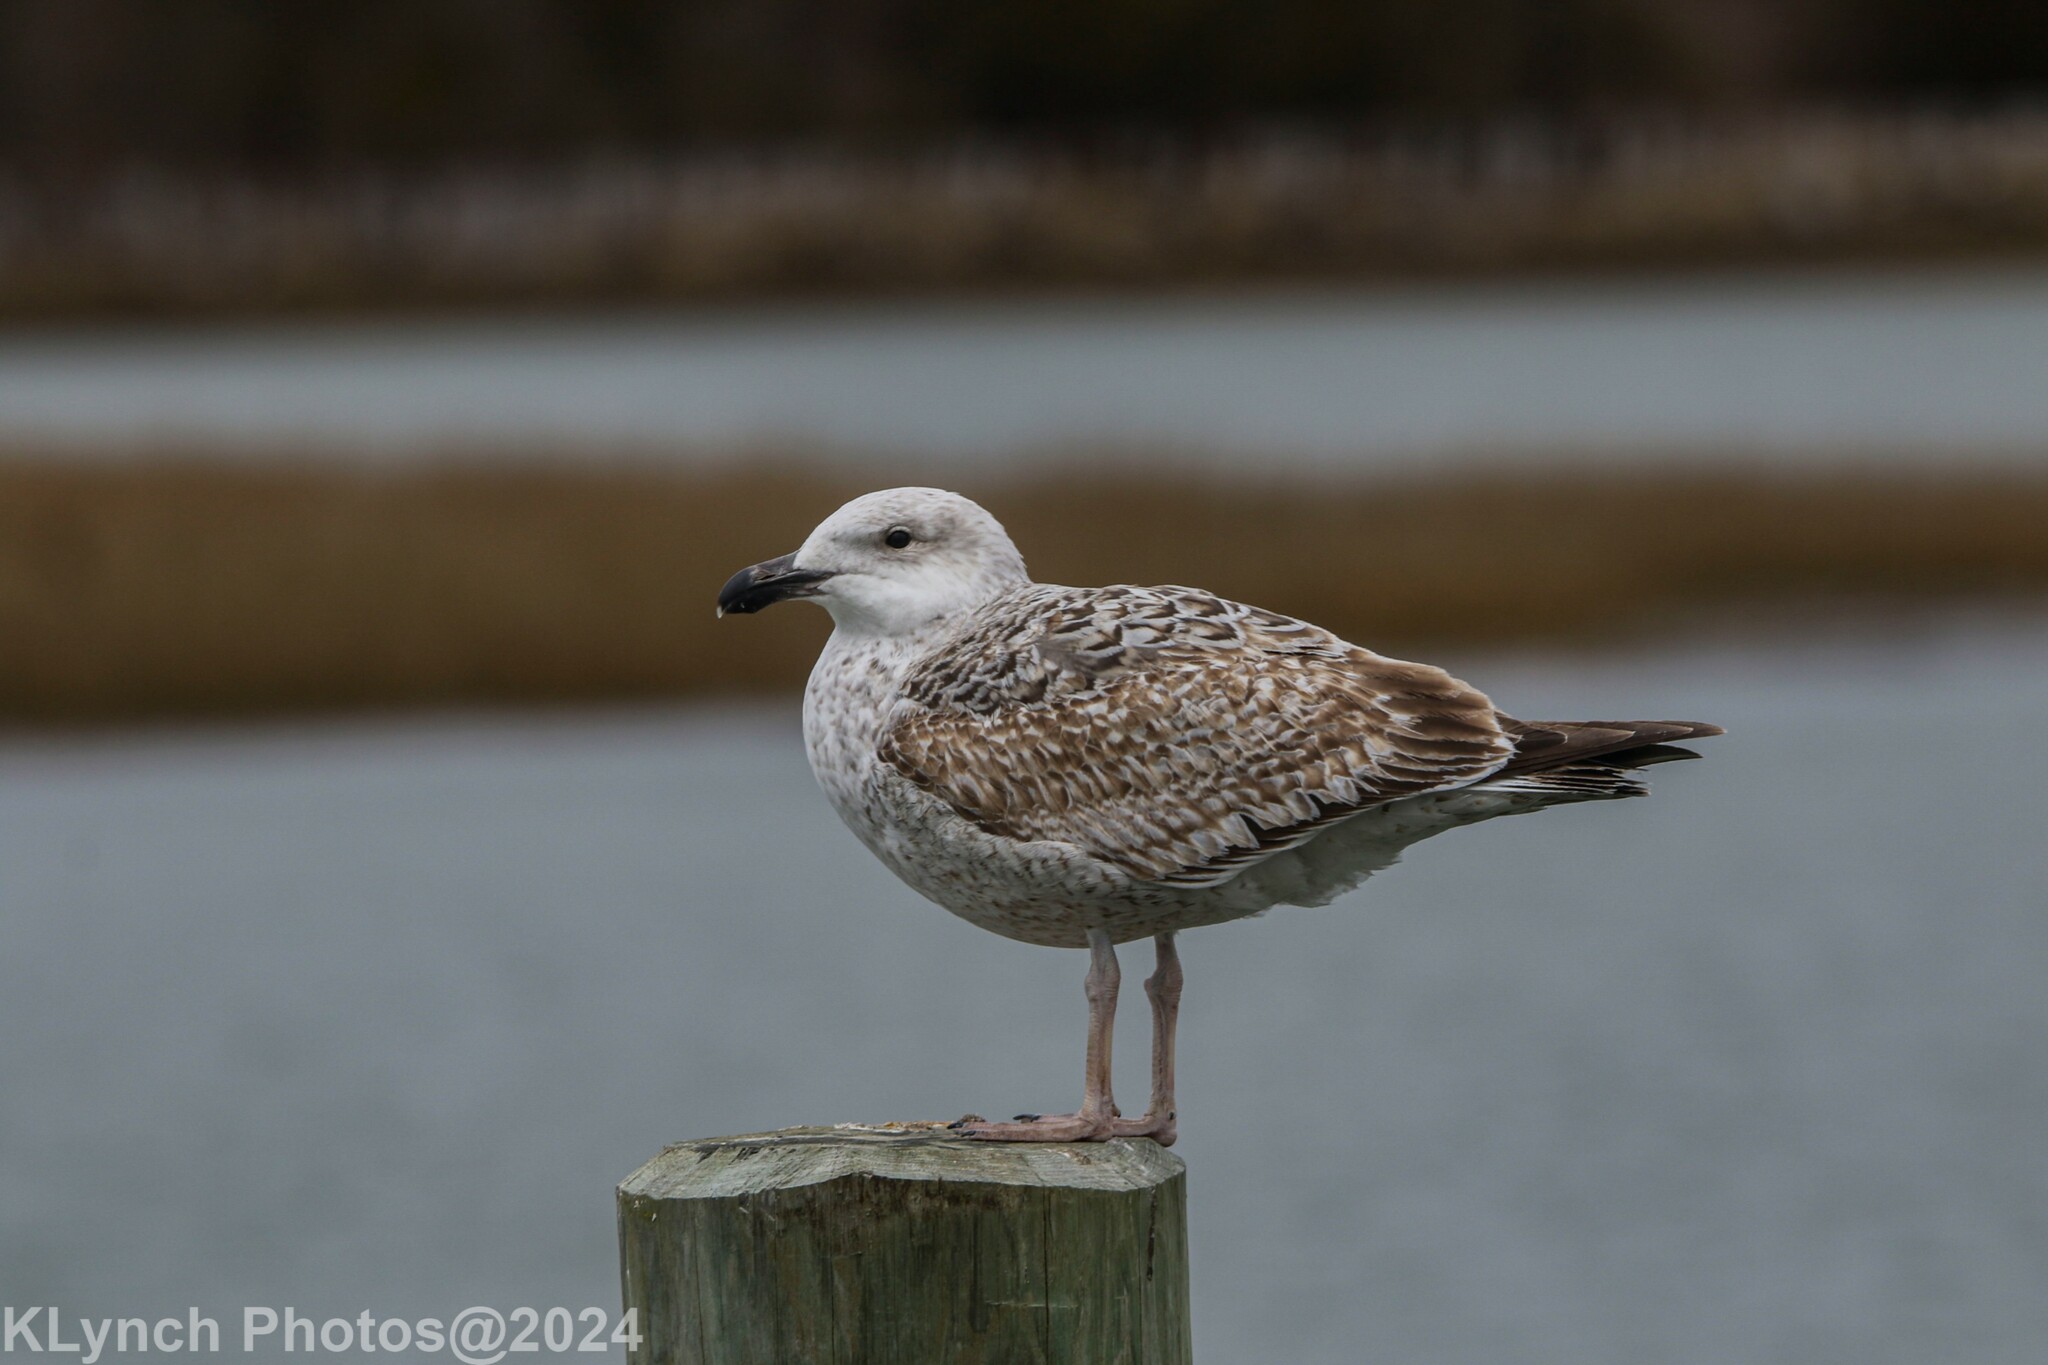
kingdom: Animalia
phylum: Chordata
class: Aves
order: Charadriiformes
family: Laridae
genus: Larus
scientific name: Larus marinus
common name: Great black-backed gull
